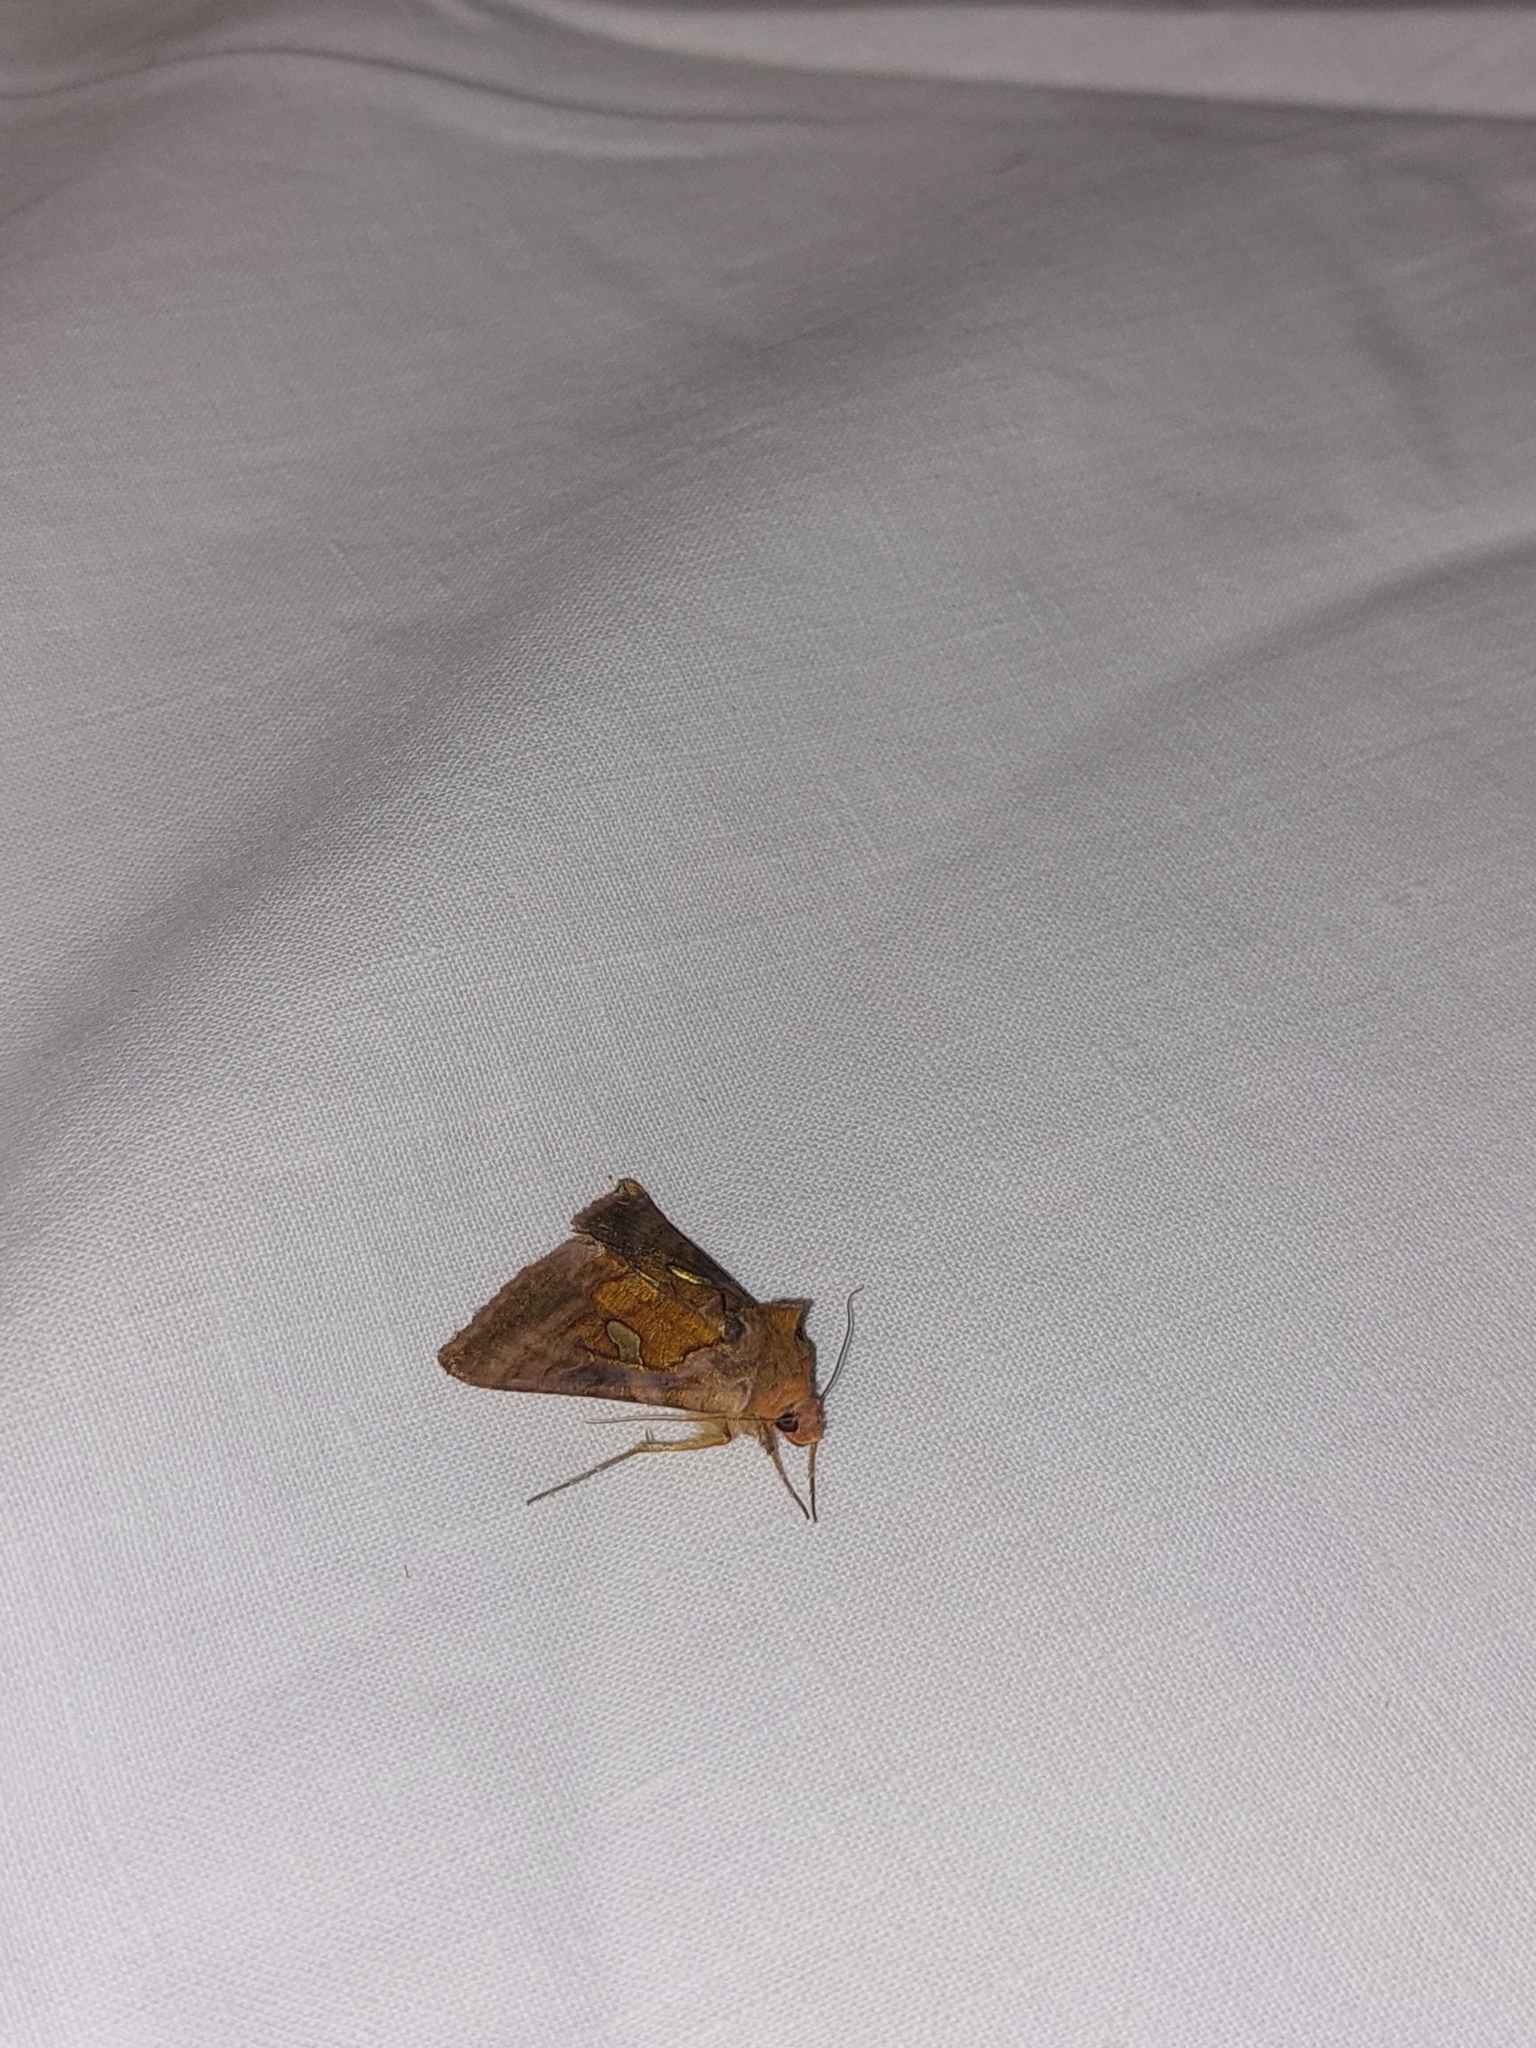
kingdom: Animalia
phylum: Arthropoda
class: Insecta
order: Lepidoptera
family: Noctuidae
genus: Autographa
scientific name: Autographa excelsa
